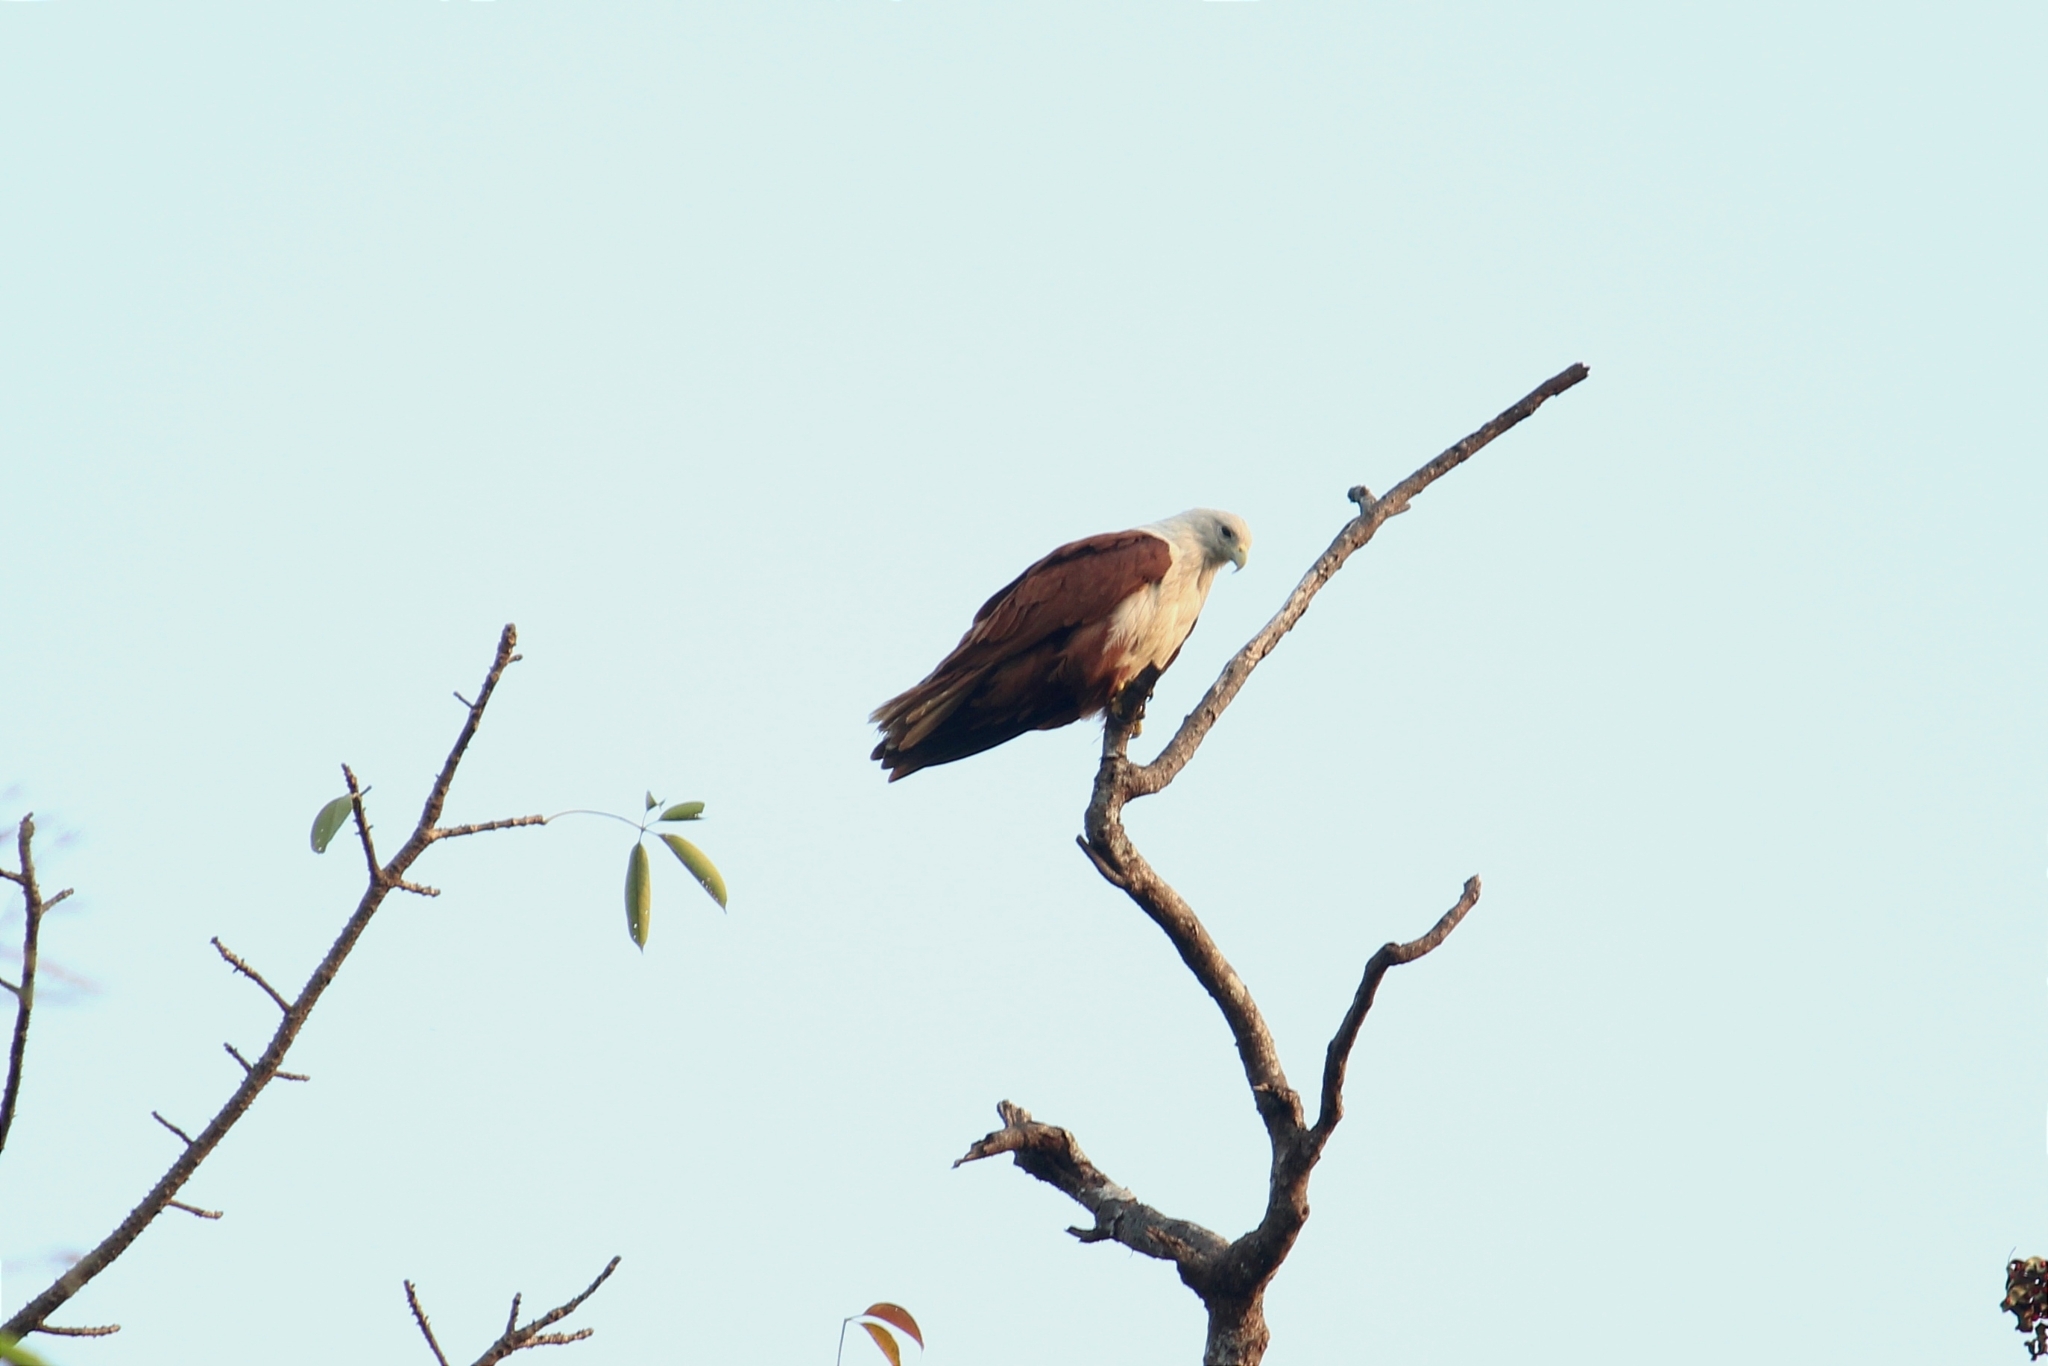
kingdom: Animalia
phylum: Chordata
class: Aves
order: Accipitriformes
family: Accipitridae
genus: Haliastur
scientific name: Haliastur indus
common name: Brahminy kite
